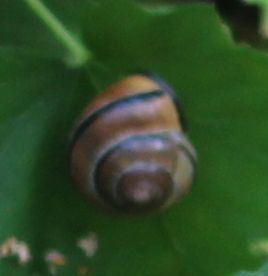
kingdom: Animalia
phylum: Mollusca
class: Gastropoda
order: Stylommatophora
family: Helicidae
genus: Cepaea
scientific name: Cepaea nemoralis
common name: Grovesnail
